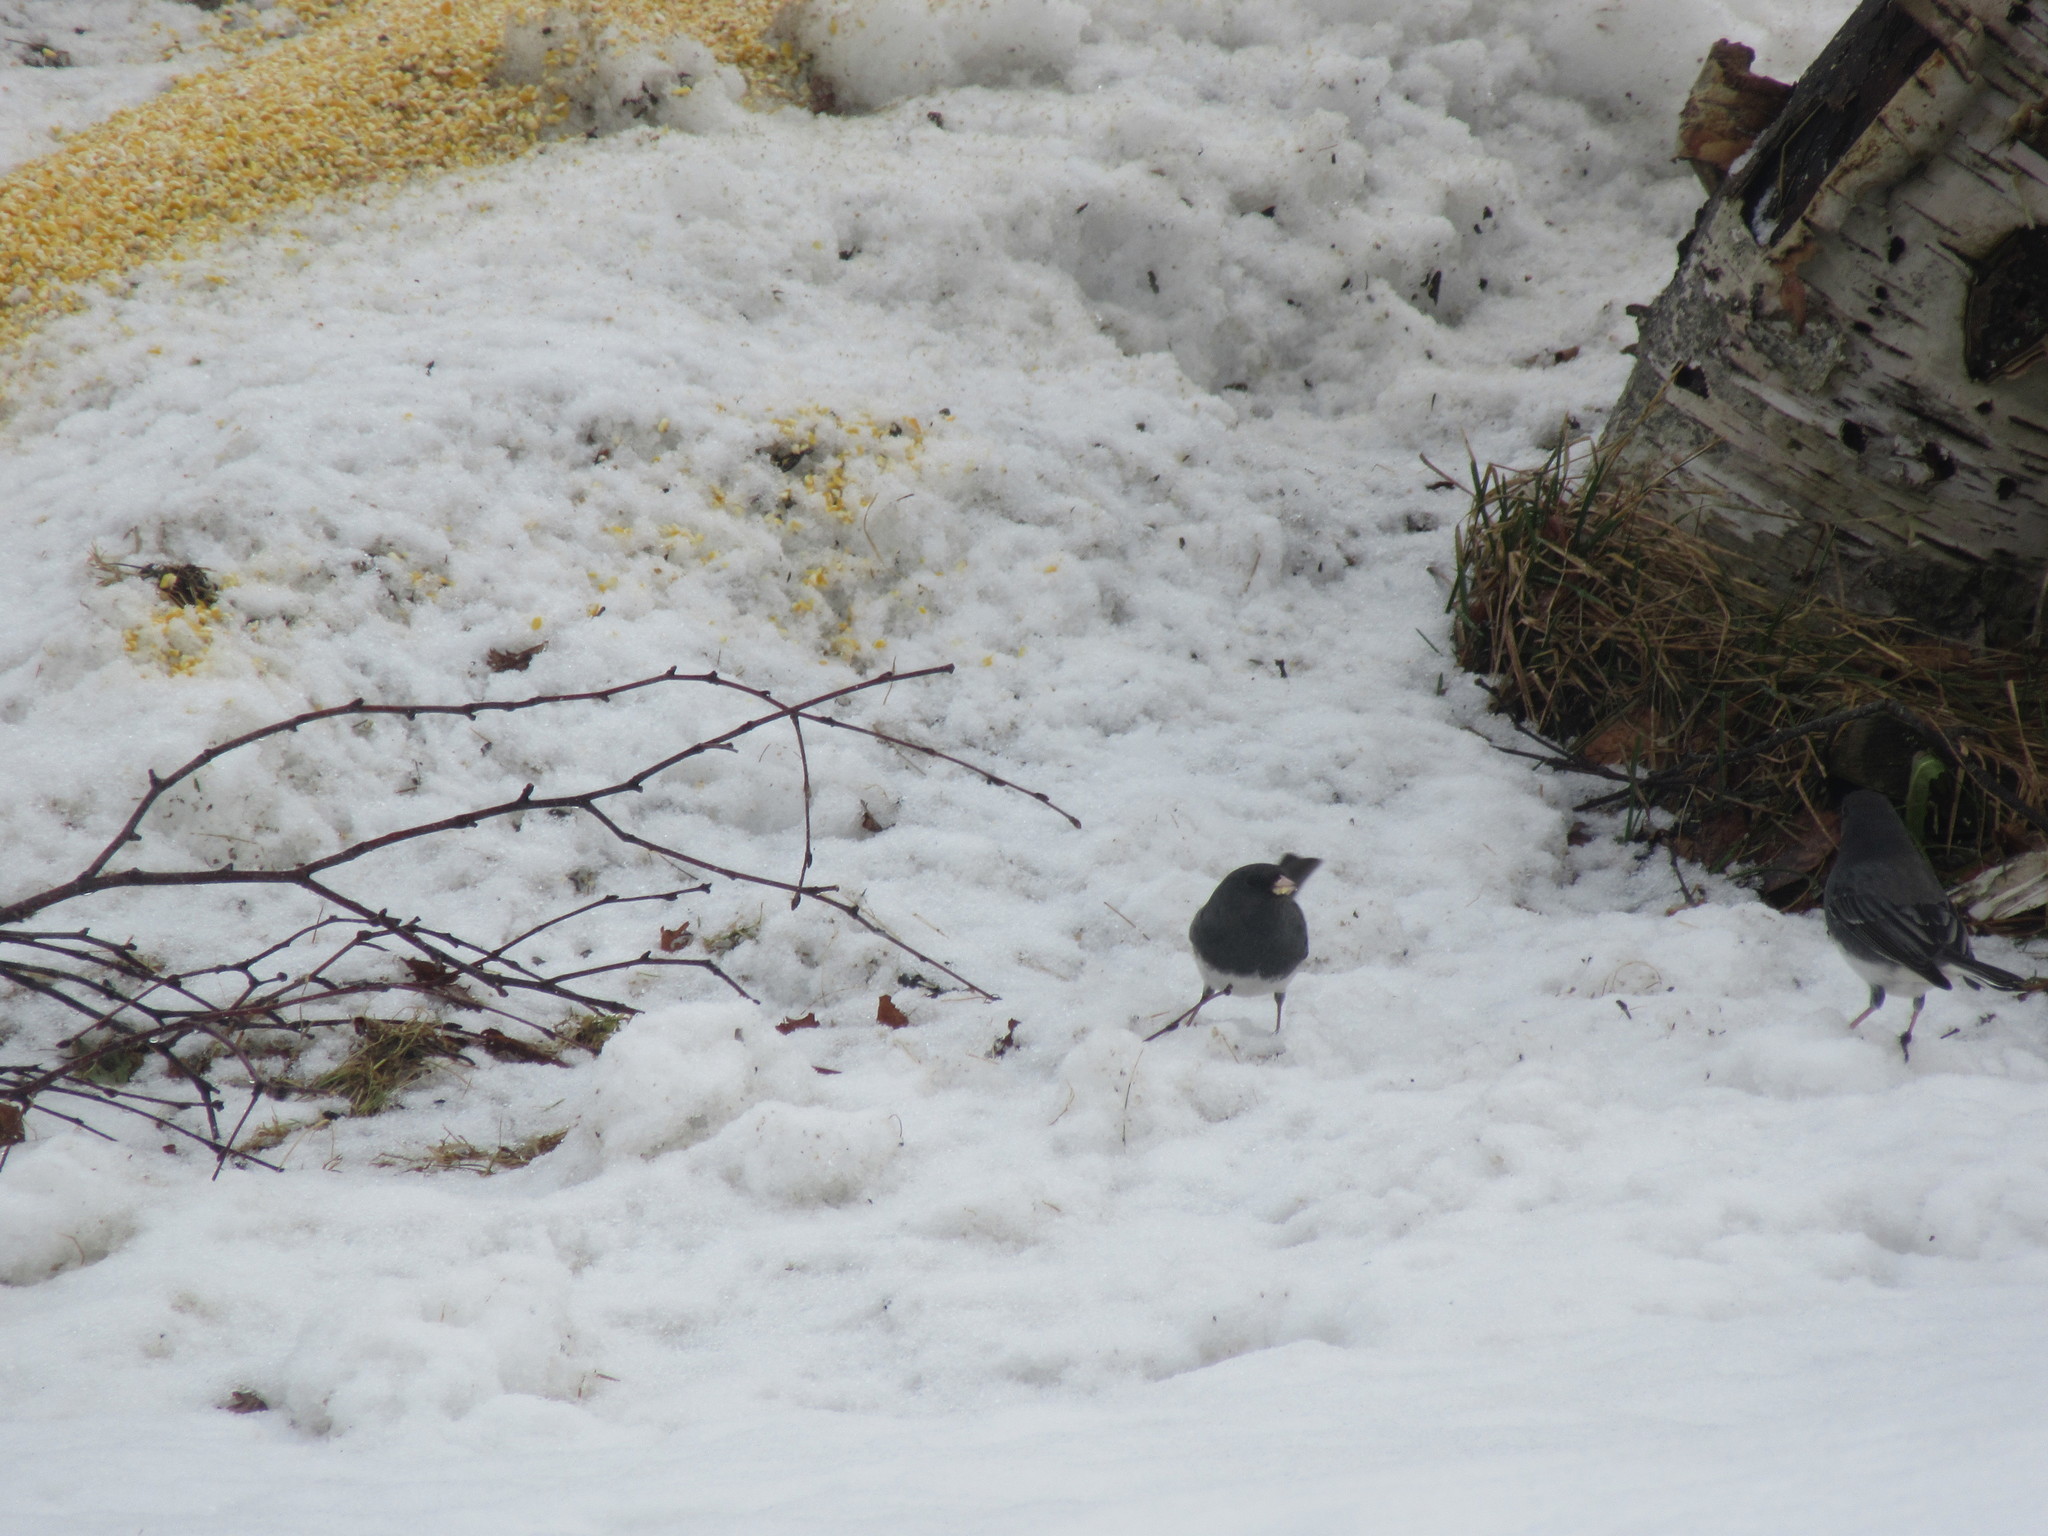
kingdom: Animalia
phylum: Chordata
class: Aves
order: Passeriformes
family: Passerellidae
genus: Junco
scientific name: Junco hyemalis
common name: Dark-eyed junco
